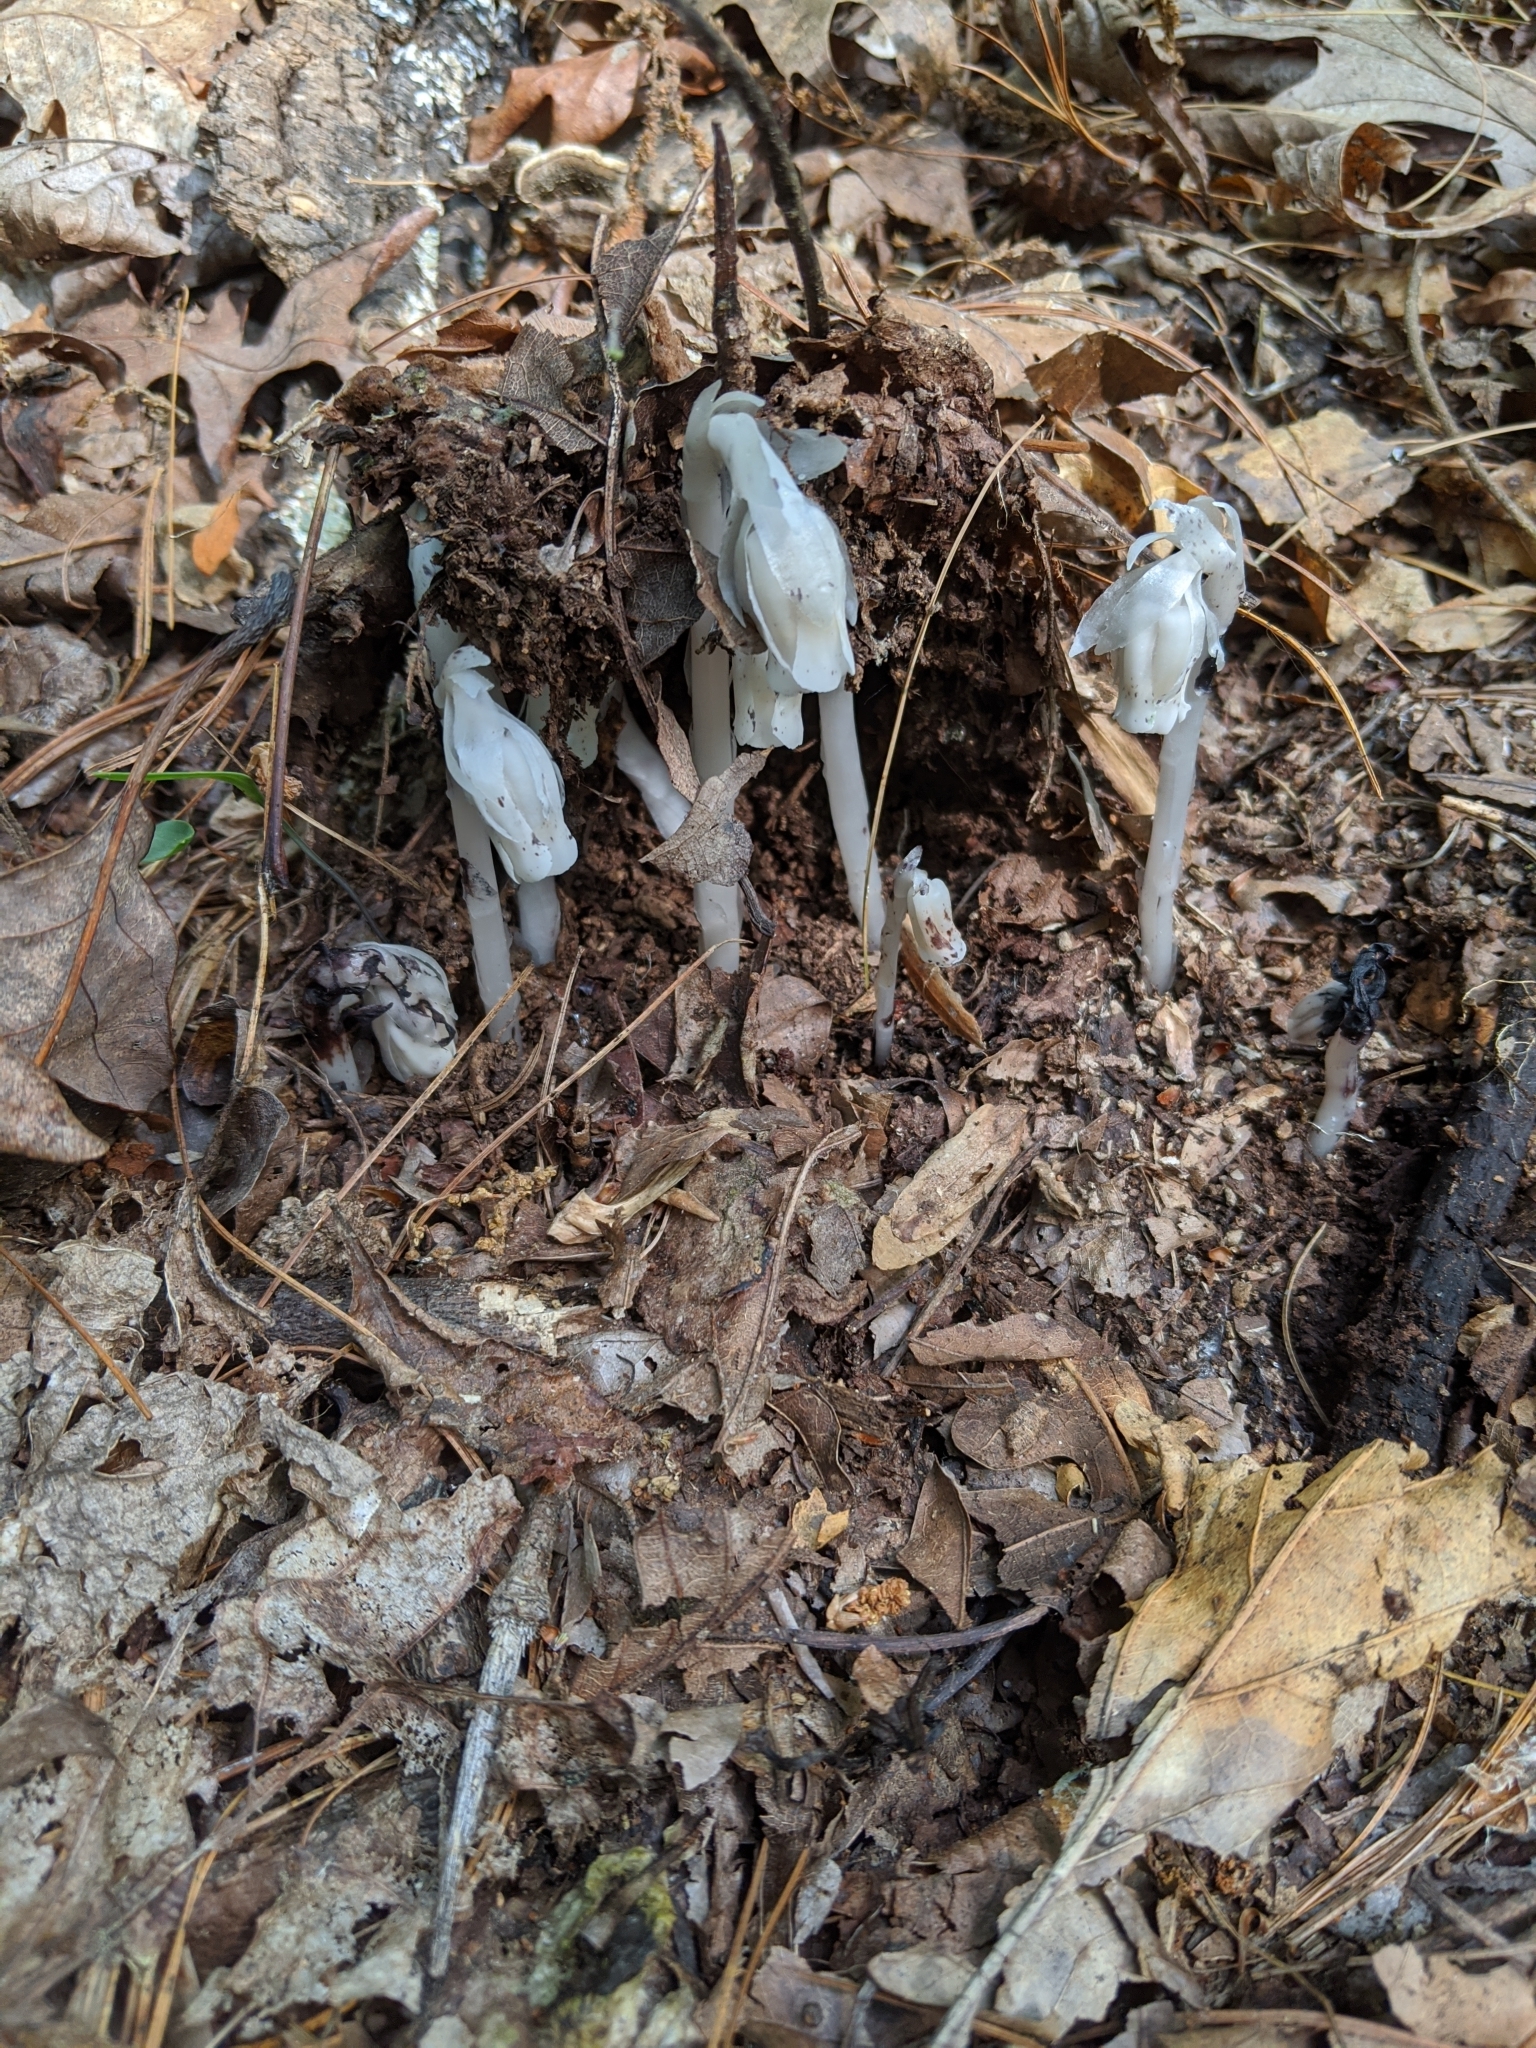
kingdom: Plantae
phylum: Tracheophyta
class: Magnoliopsida
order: Ericales
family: Ericaceae
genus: Monotropa
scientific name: Monotropa uniflora
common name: Convulsion root
